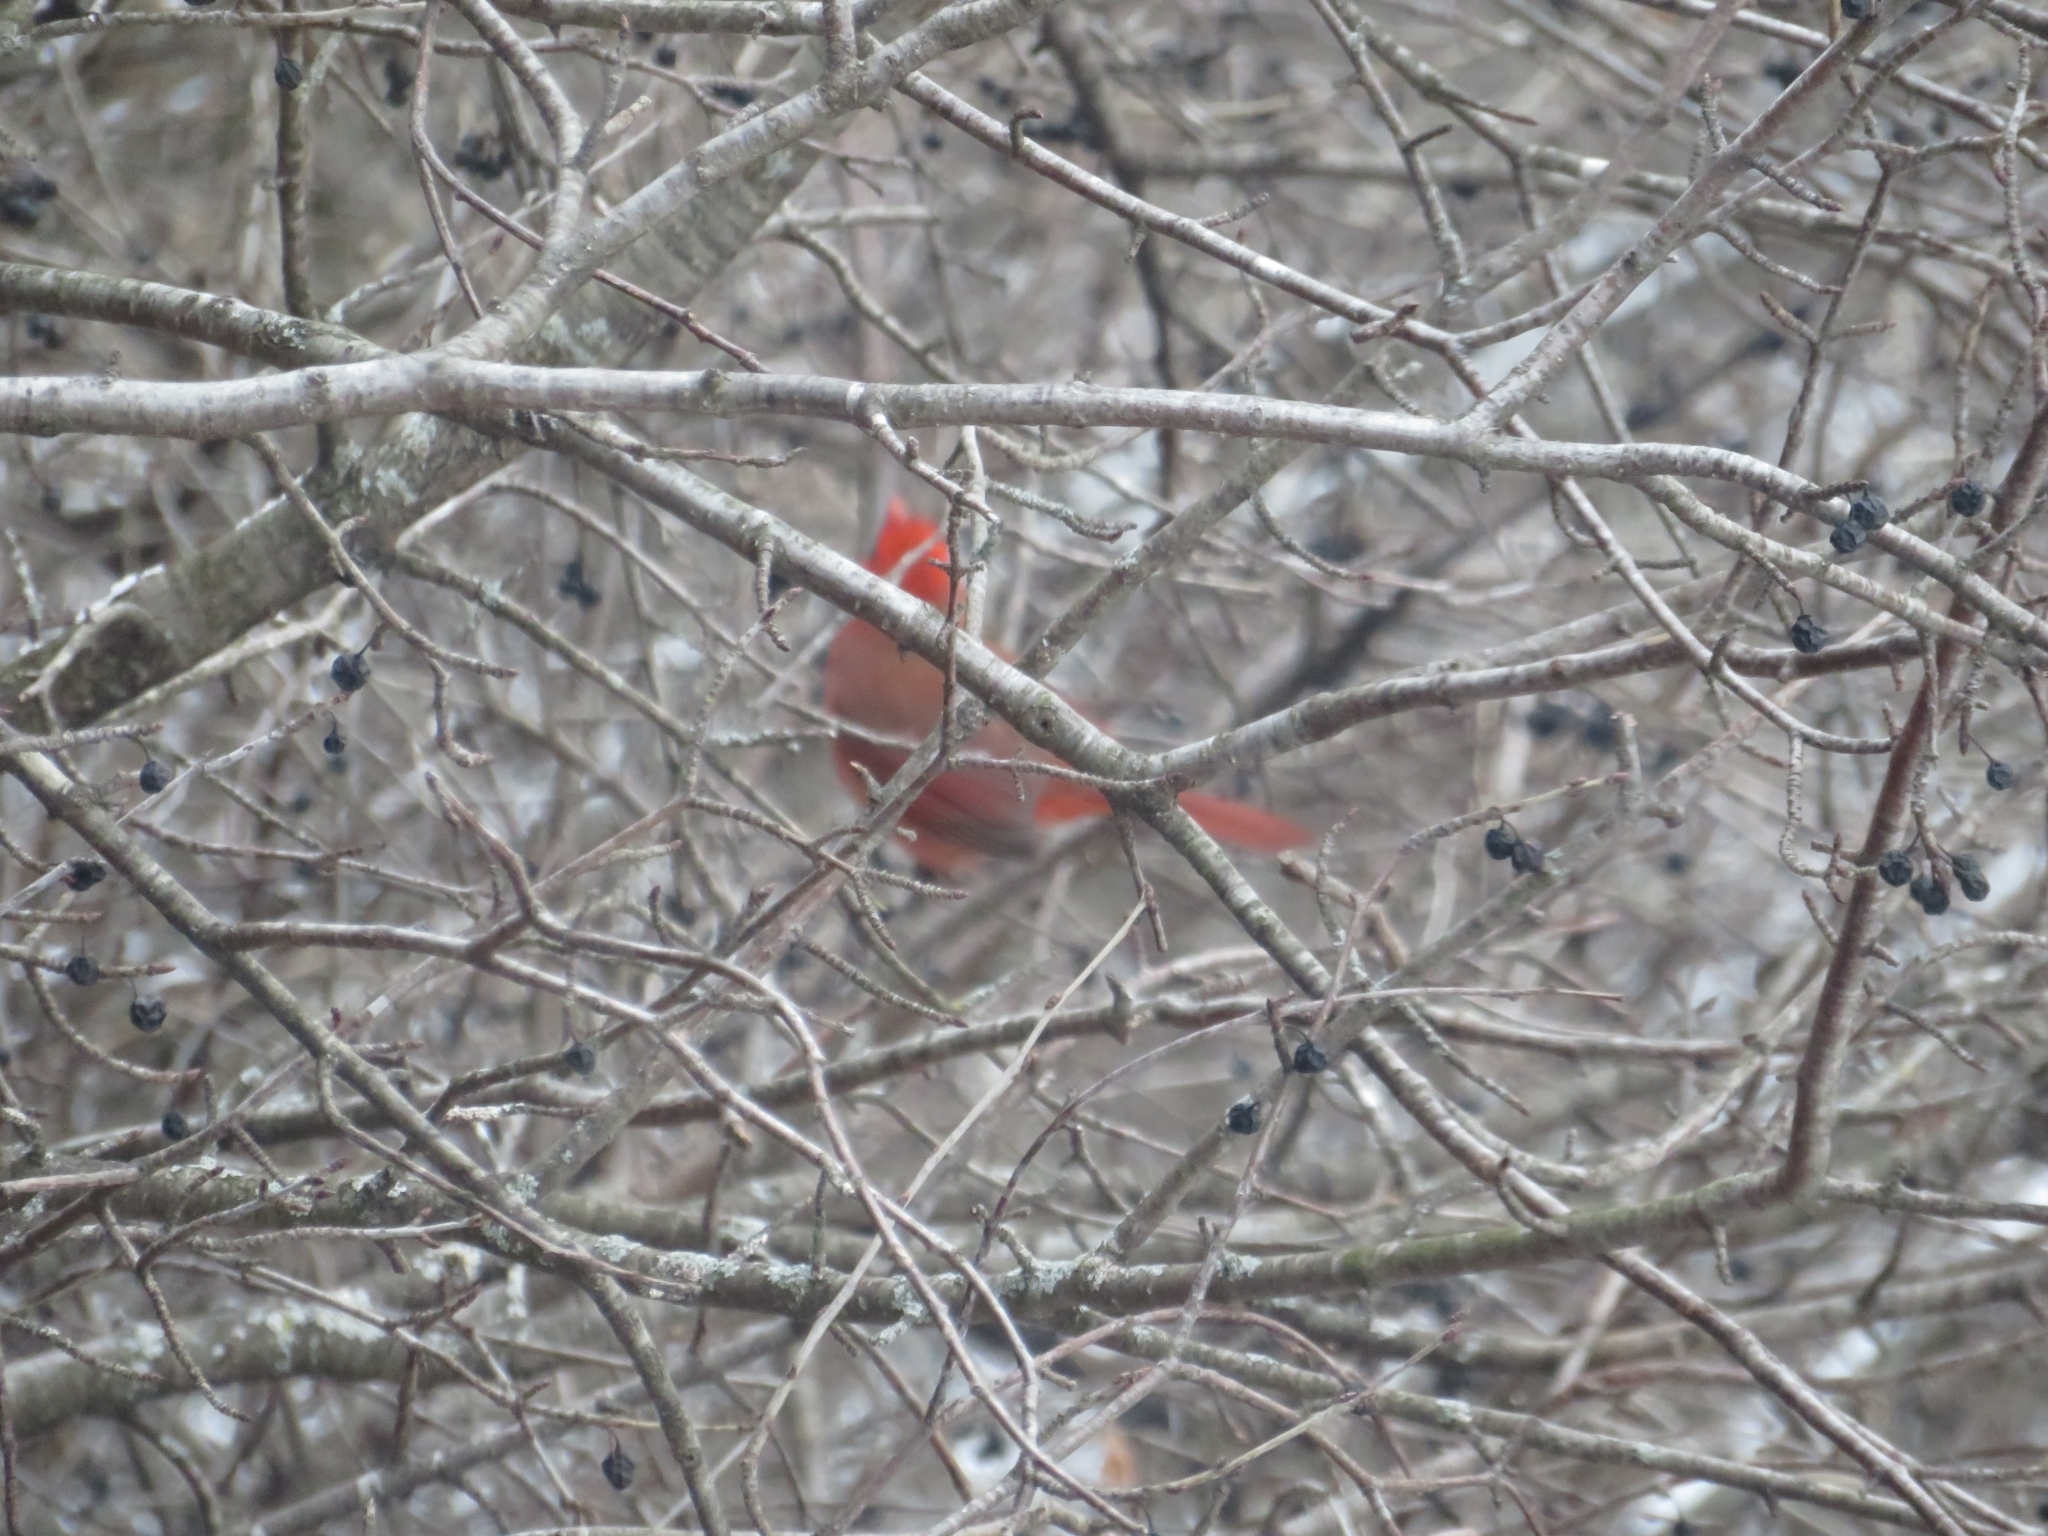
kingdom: Animalia
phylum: Chordata
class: Aves
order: Passeriformes
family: Cardinalidae
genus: Cardinalis
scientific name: Cardinalis cardinalis
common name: Northern cardinal
